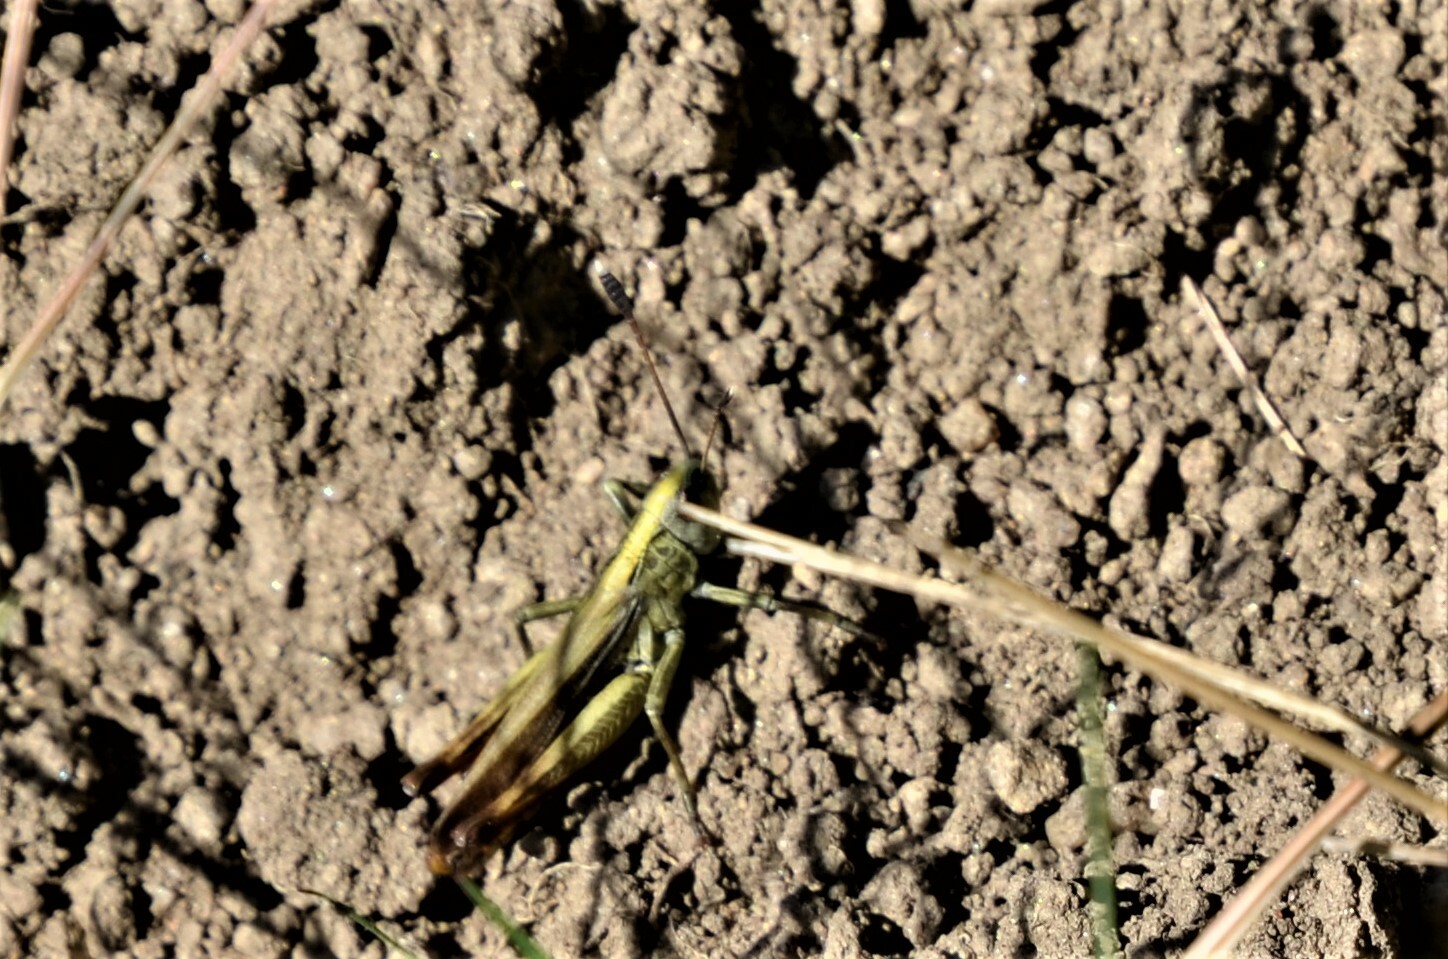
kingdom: Animalia
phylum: Arthropoda
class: Insecta
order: Orthoptera
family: Acrididae
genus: Gomphocerippus
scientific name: Gomphocerippus rufus
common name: Rufous grasshopper
